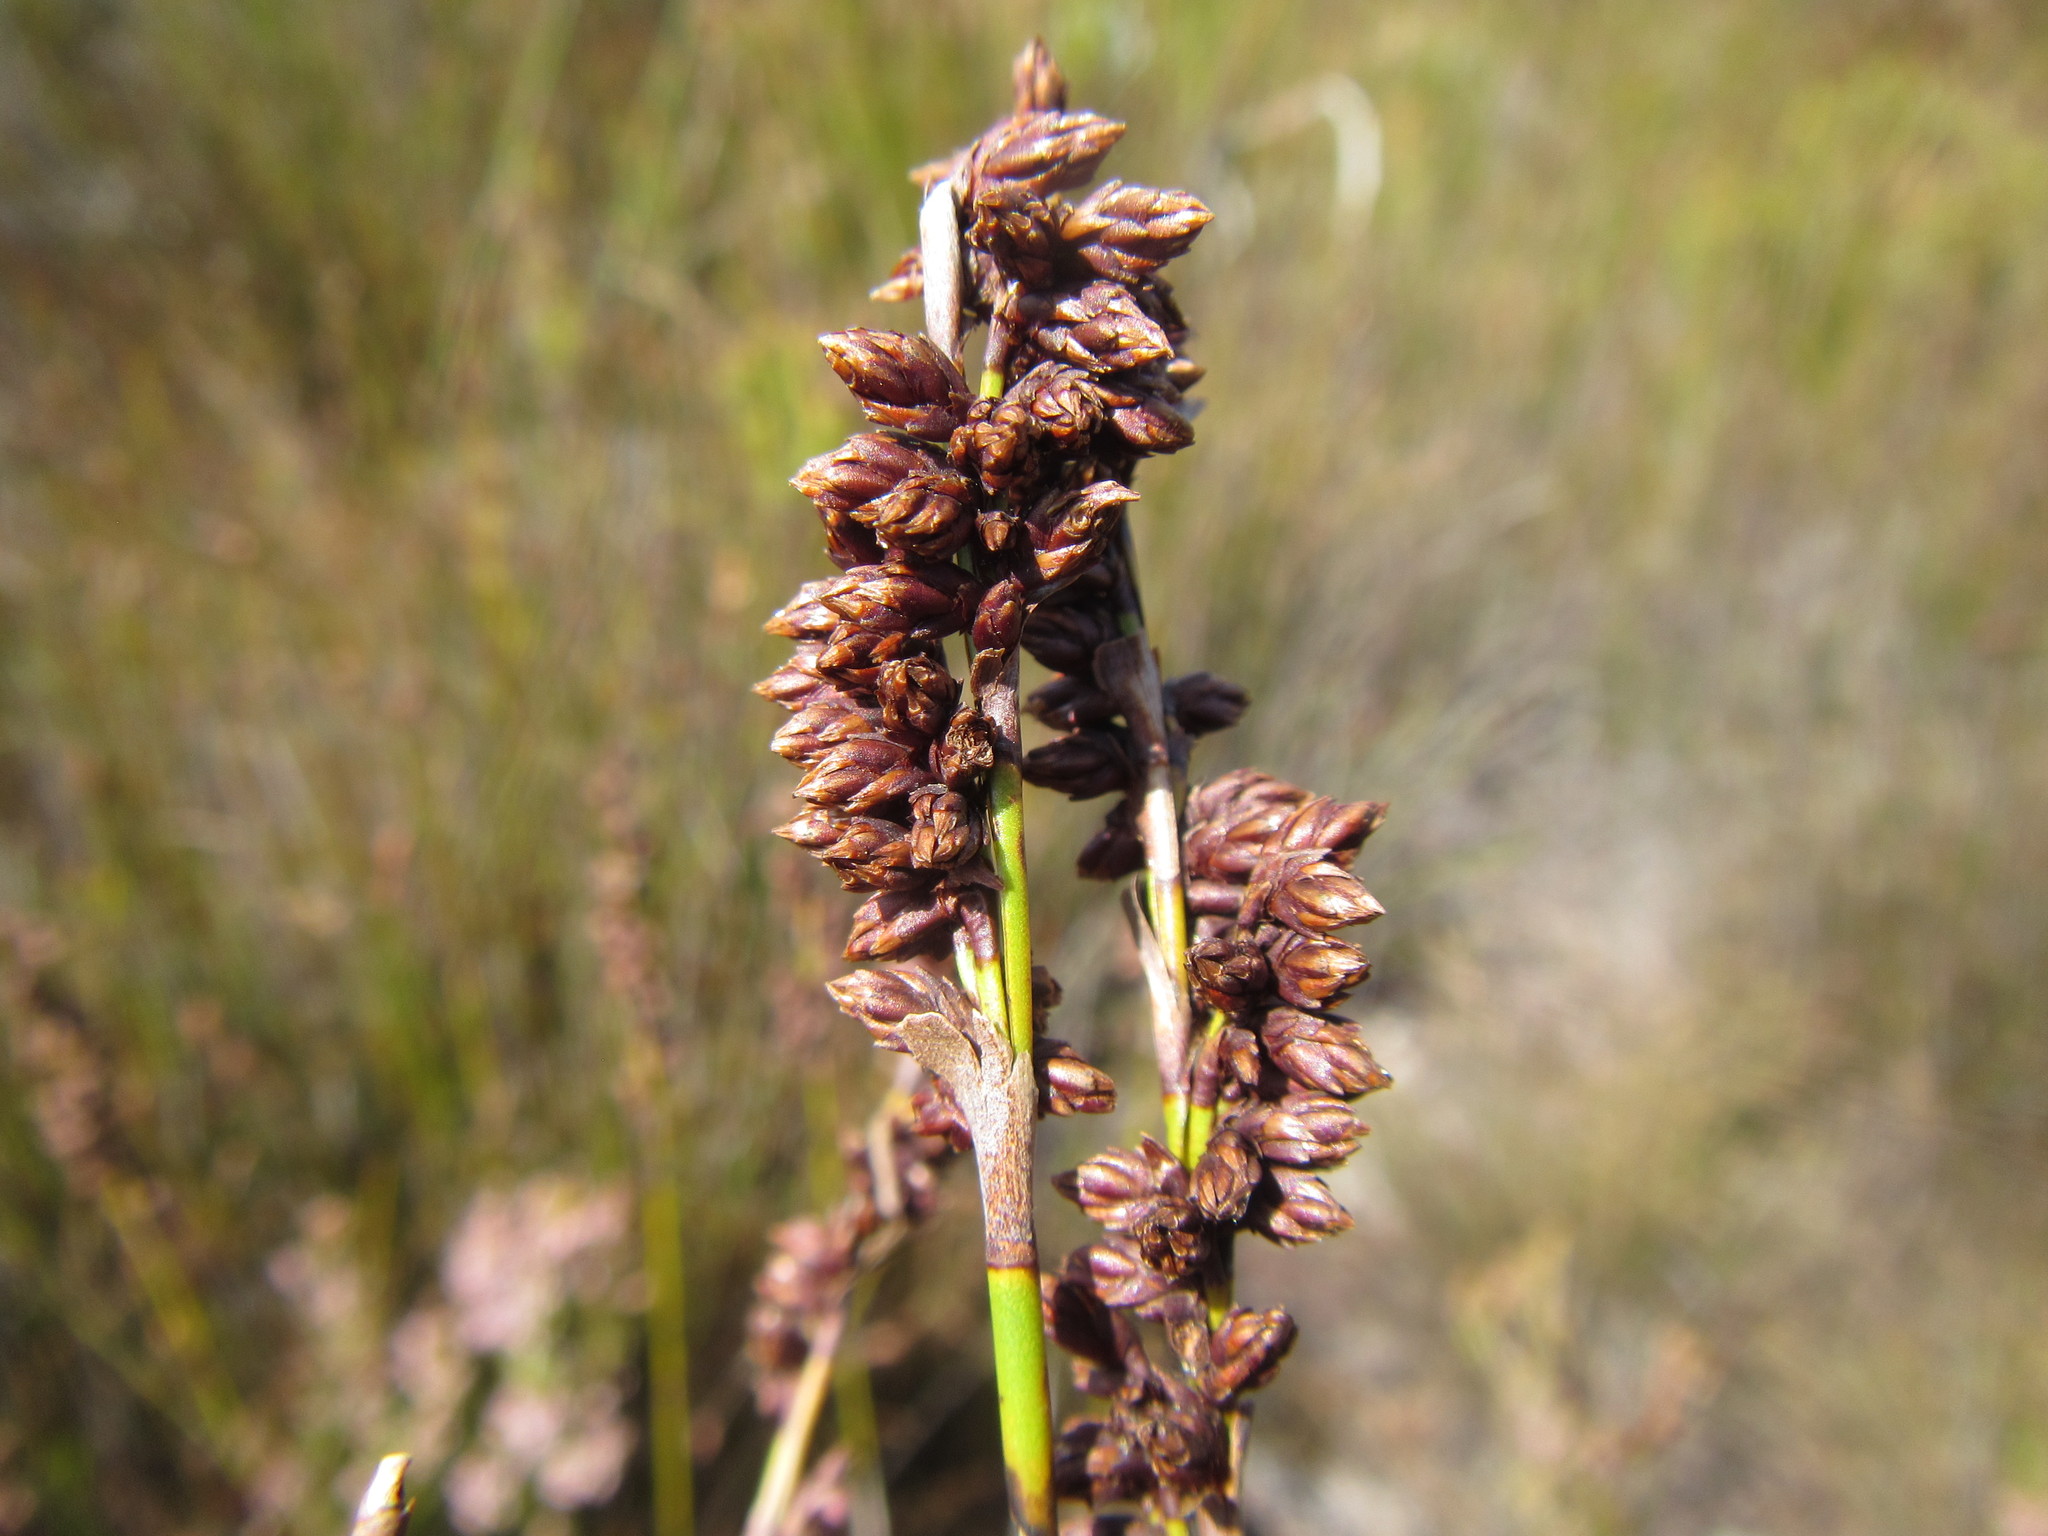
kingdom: Plantae
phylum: Tracheophyta
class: Liliopsida
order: Poales
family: Restionaceae
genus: Elegia
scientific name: Elegia deusta
